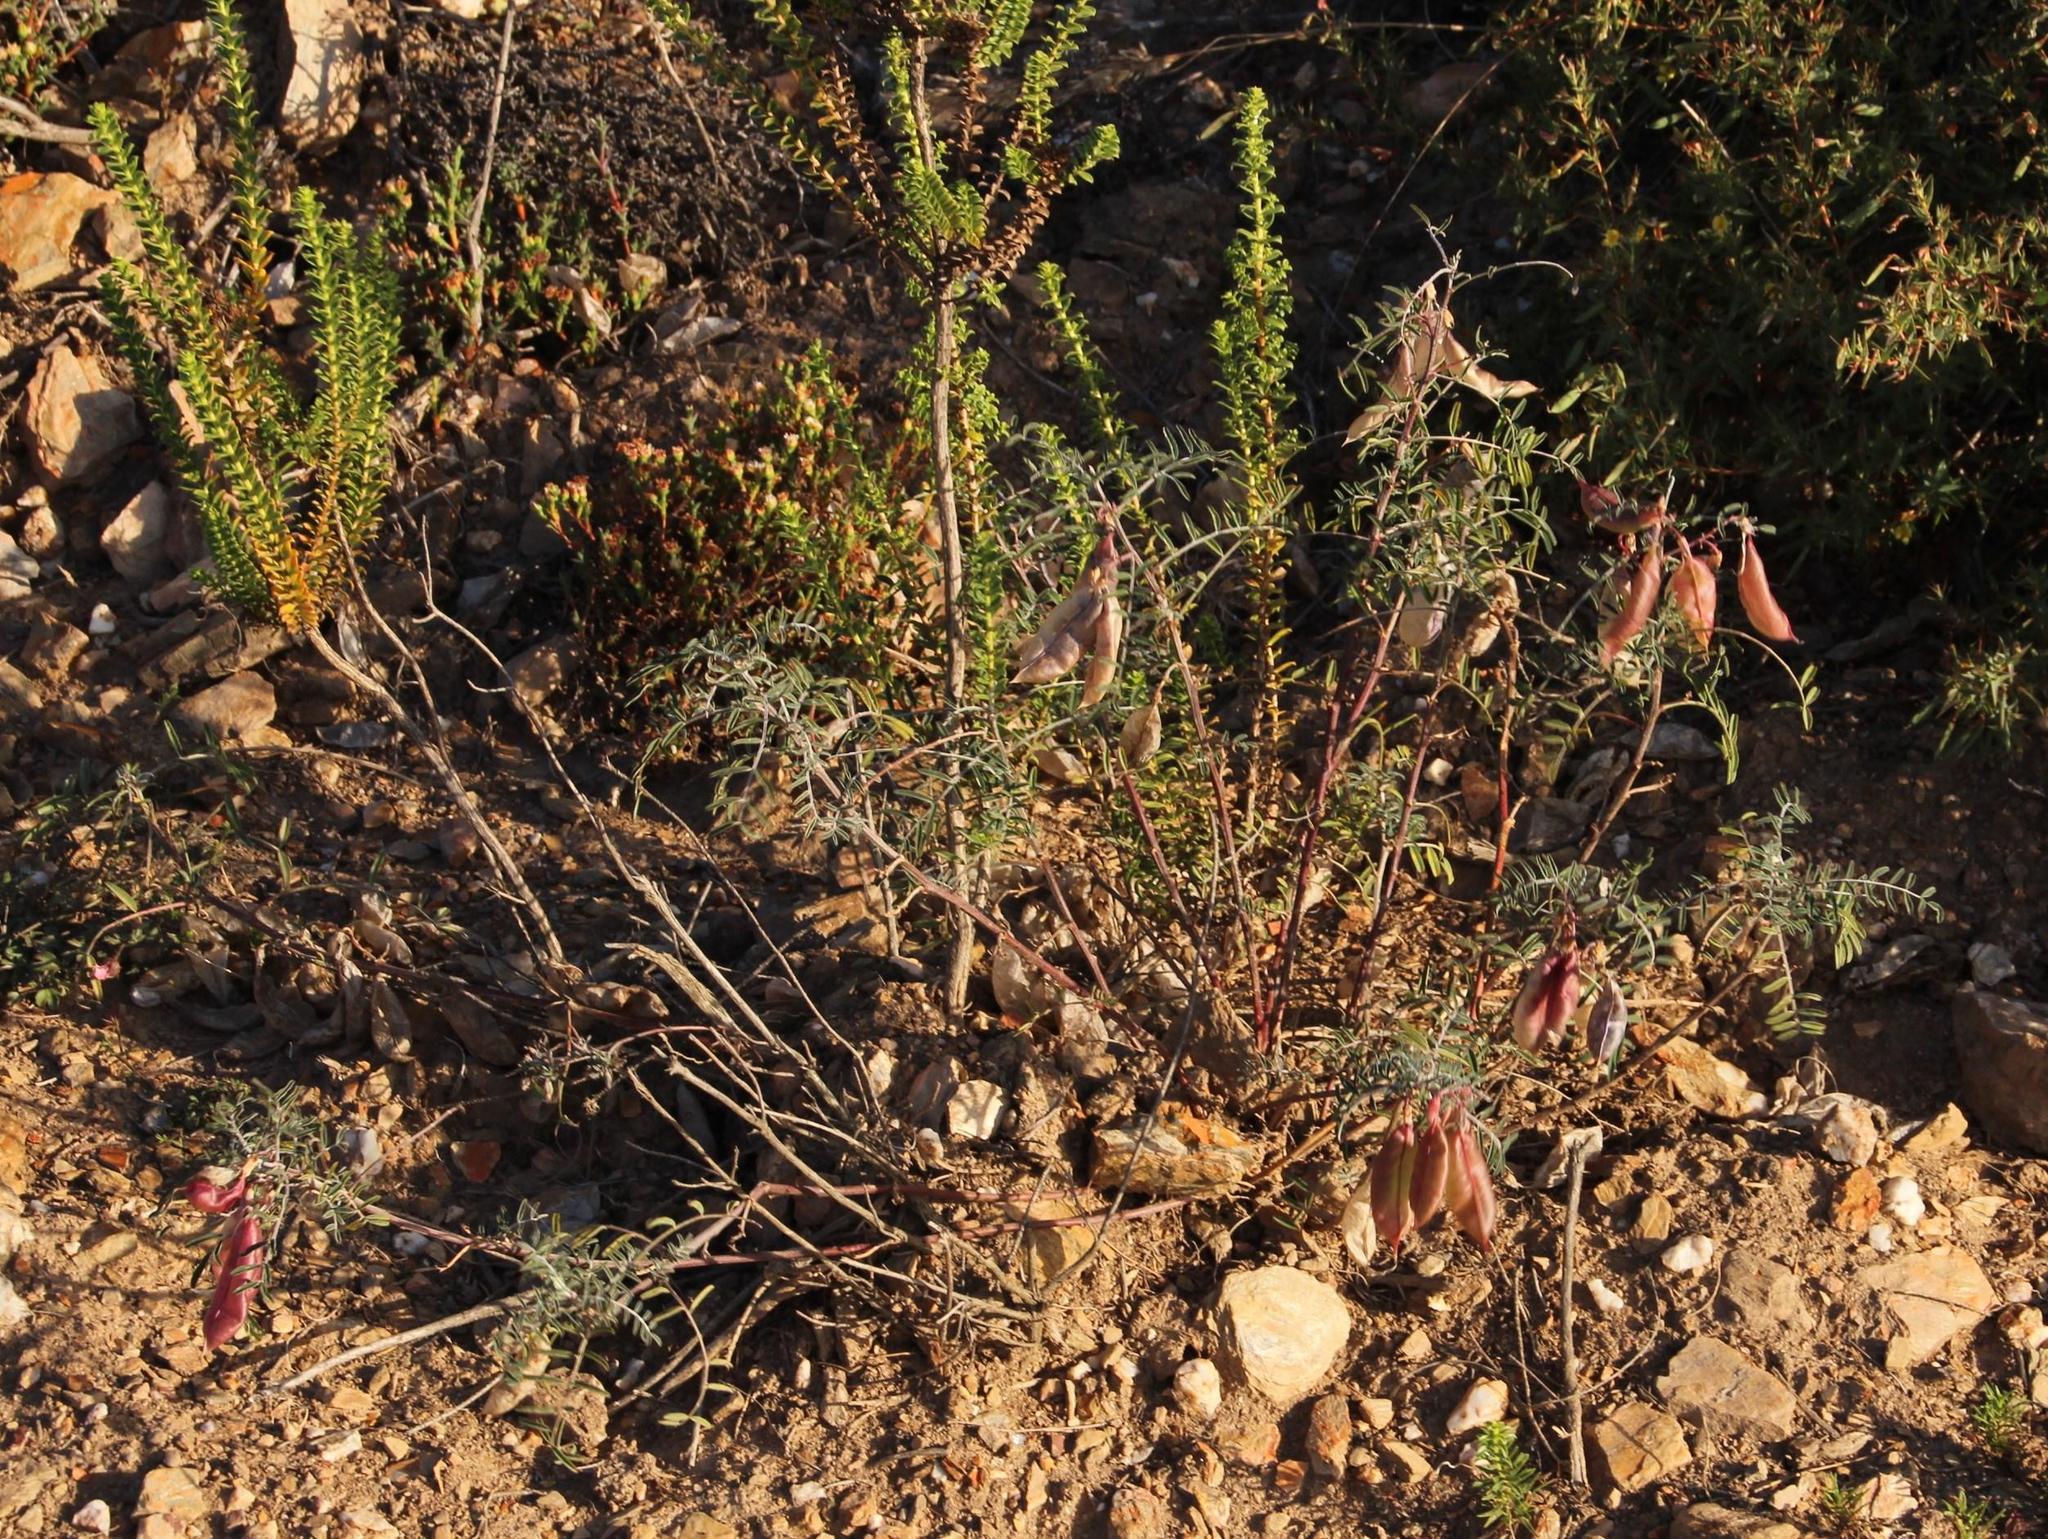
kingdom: Plantae
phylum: Tracheophyta
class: Magnoliopsida
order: Fabales
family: Fabaceae
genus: Lessertia
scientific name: Lessertia frutescens
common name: Balloon-pea
